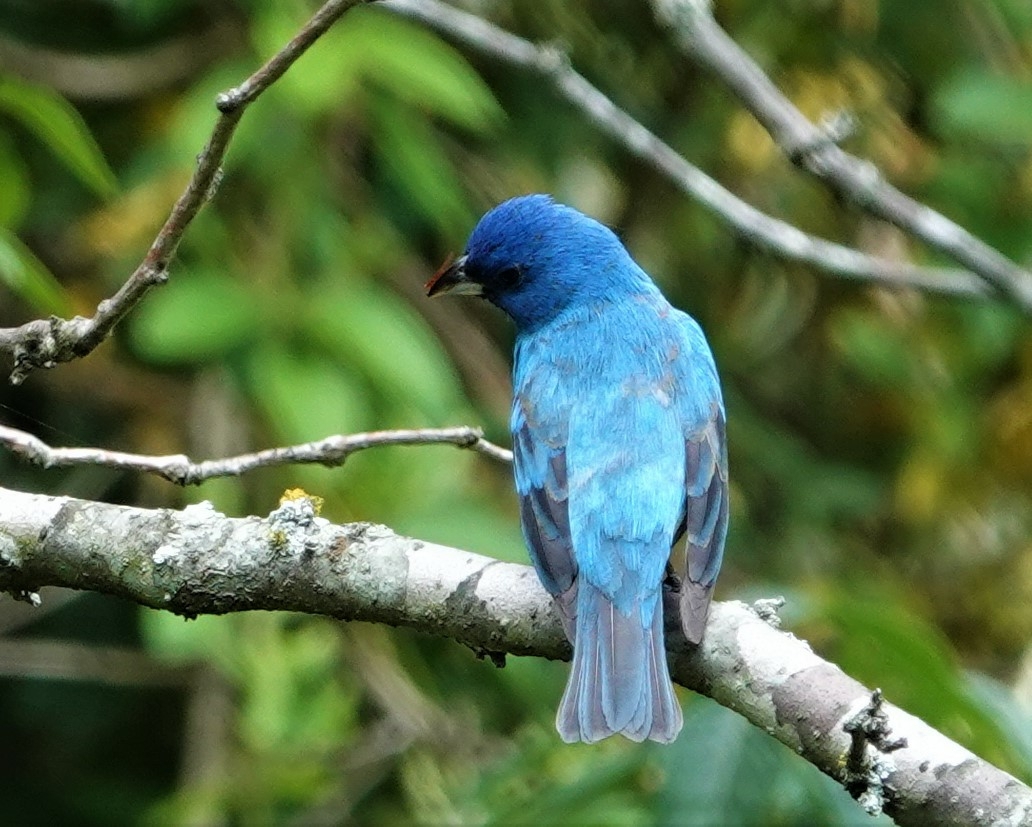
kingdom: Animalia
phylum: Chordata
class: Aves
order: Passeriformes
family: Cardinalidae
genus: Passerina
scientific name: Passerina cyanea
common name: Indigo bunting
